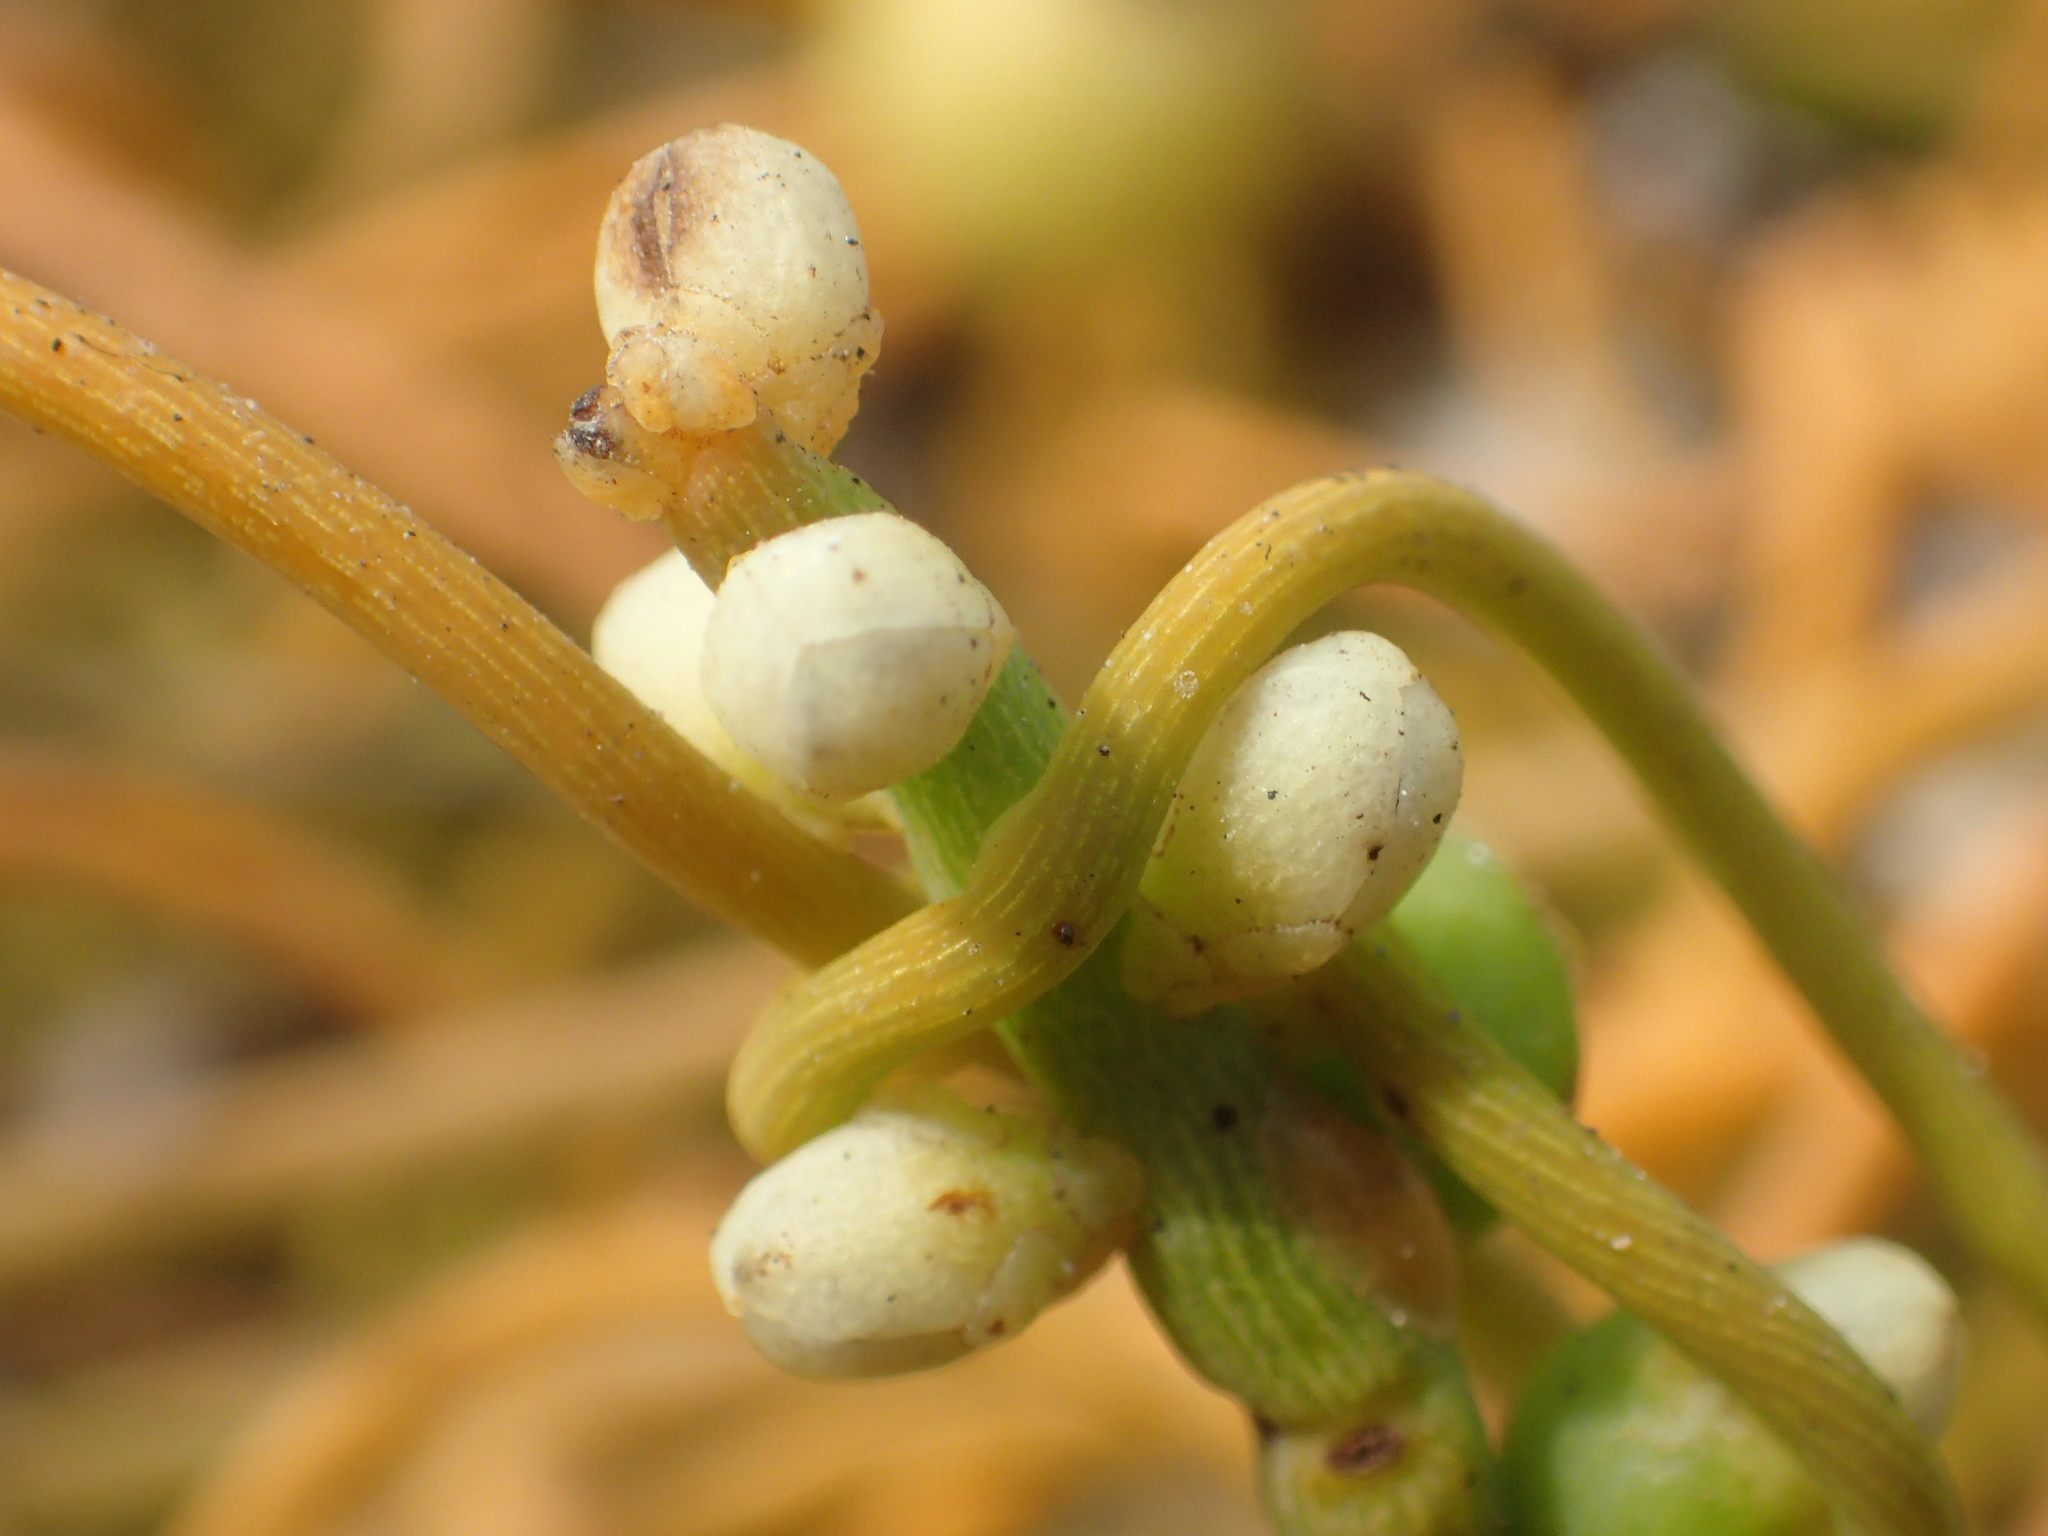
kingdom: Plantae
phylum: Tracheophyta
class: Magnoliopsida
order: Laurales
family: Lauraceae
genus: Cassytha
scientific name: Cassytha filiformis
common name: Dodder-laurel
